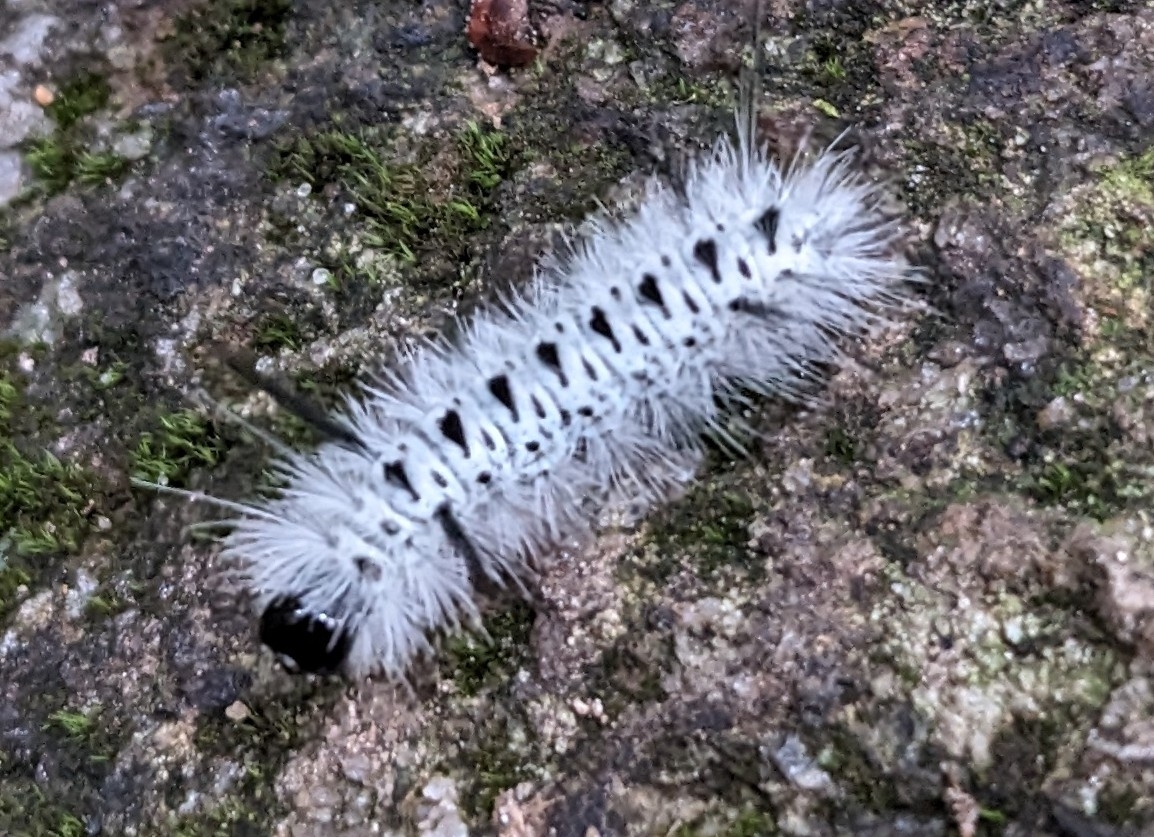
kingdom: Animalia
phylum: Arthropoda
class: Insecta
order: Lepidoptera
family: Erebidae
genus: Lophocampa
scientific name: Lophocampa caryae
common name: Hickory tussock moth
